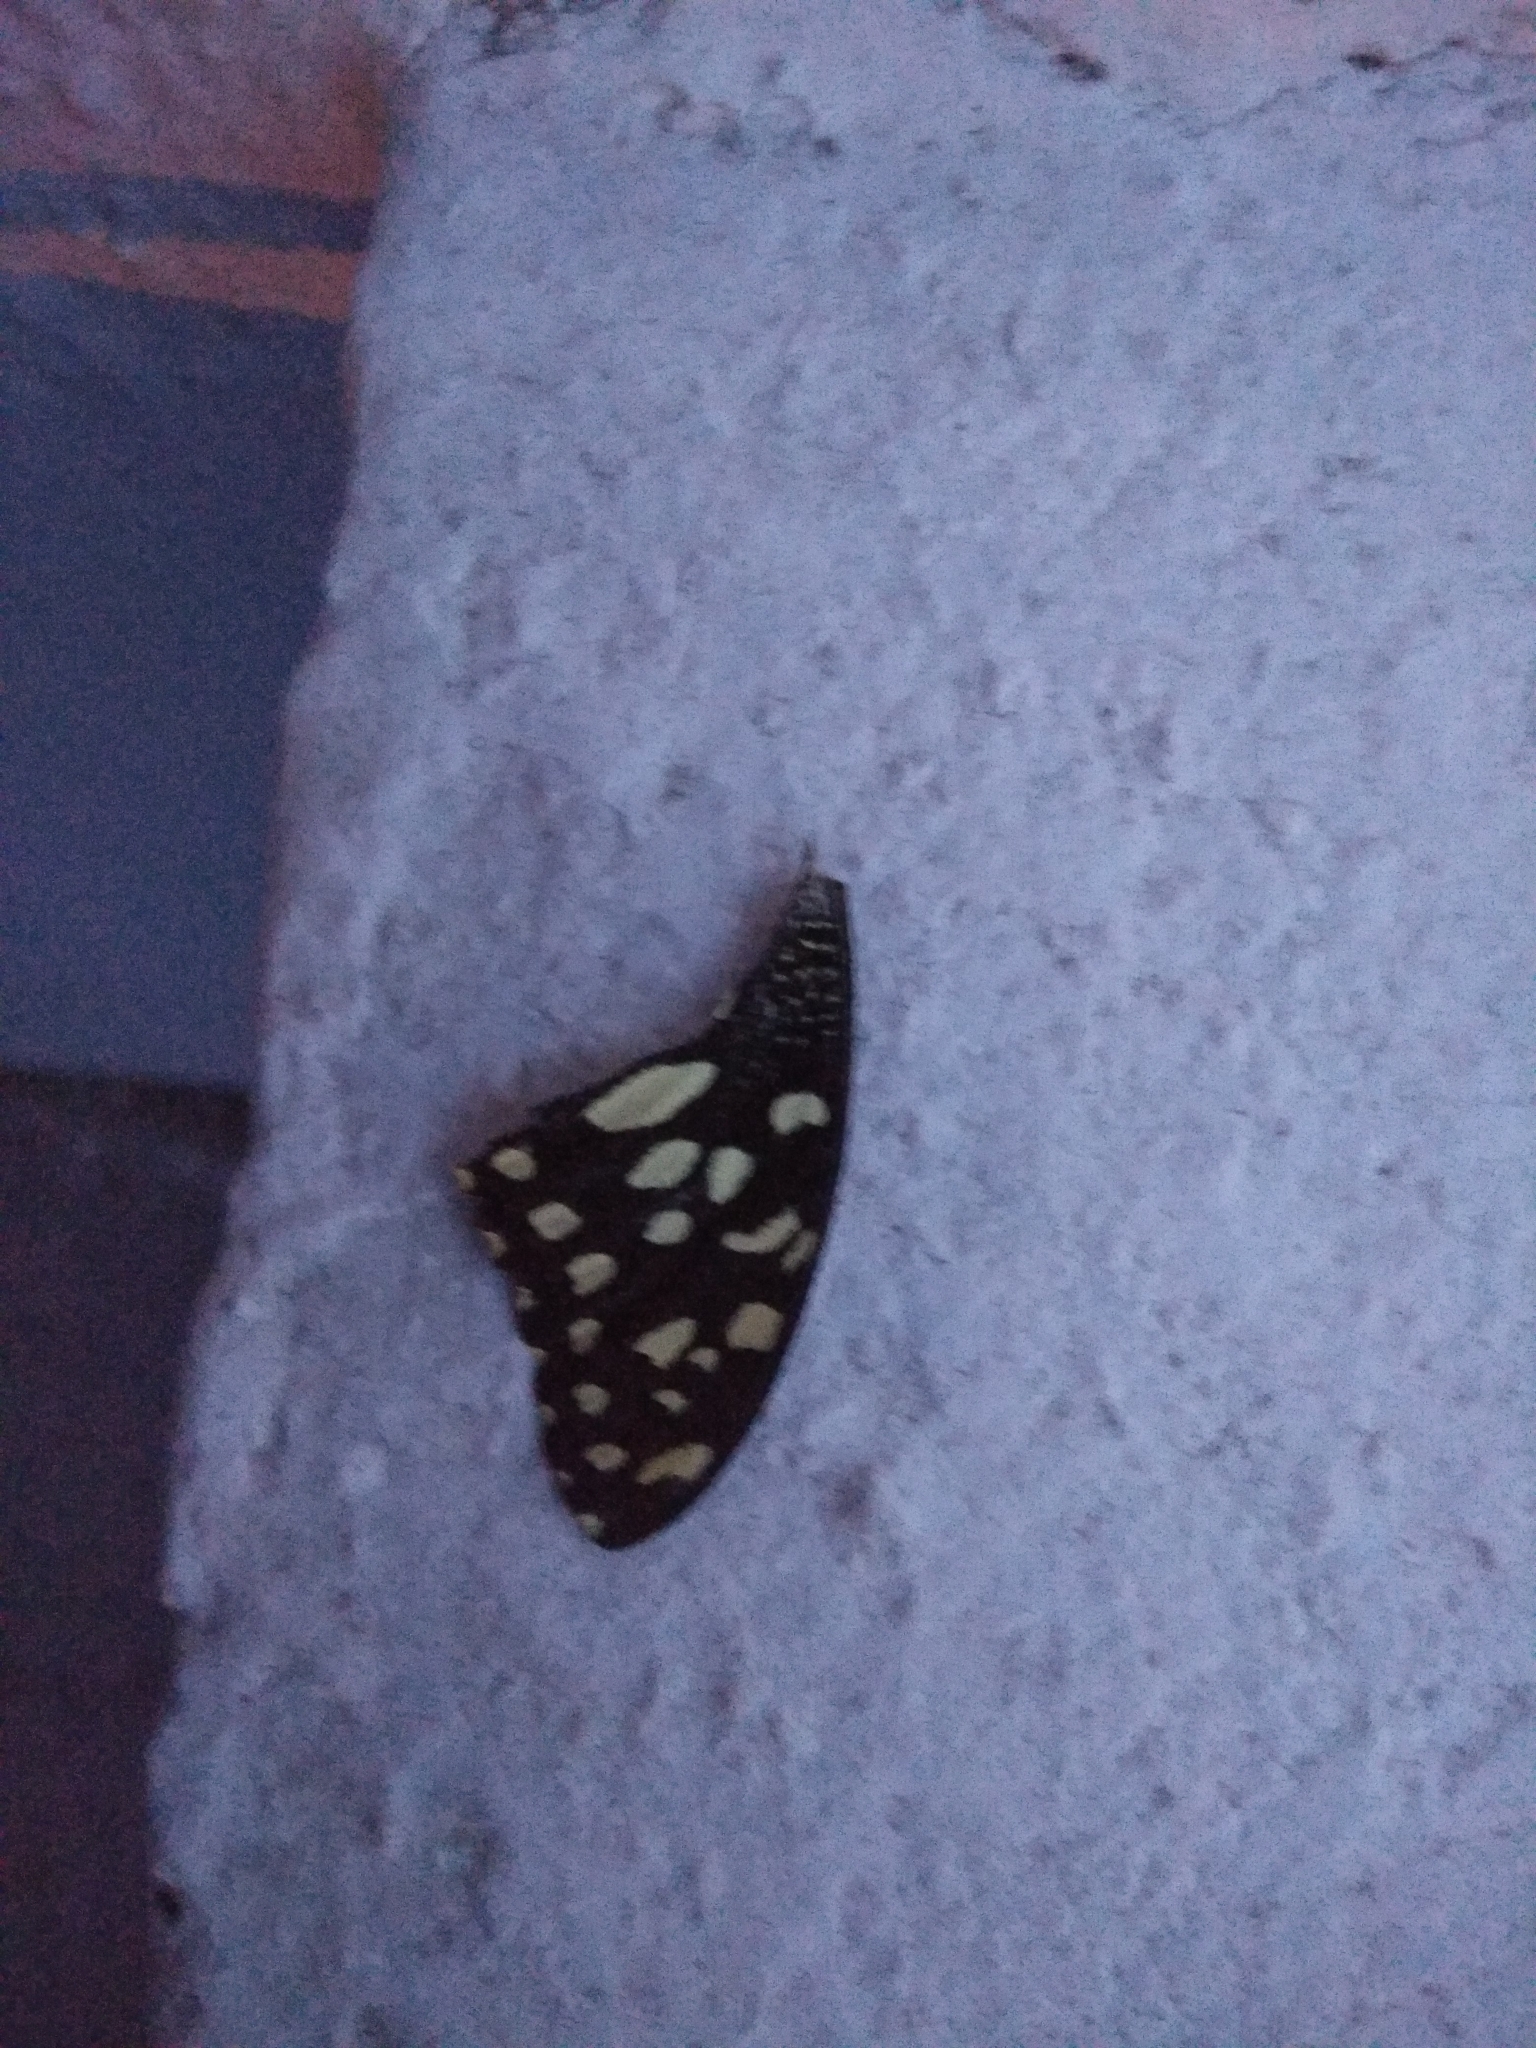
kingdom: Animalia
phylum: Arthropoda
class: Insecta
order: Lepidoptera
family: Papilionidae
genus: Papilio
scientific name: Papilio demoleus
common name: Lime butterfly
